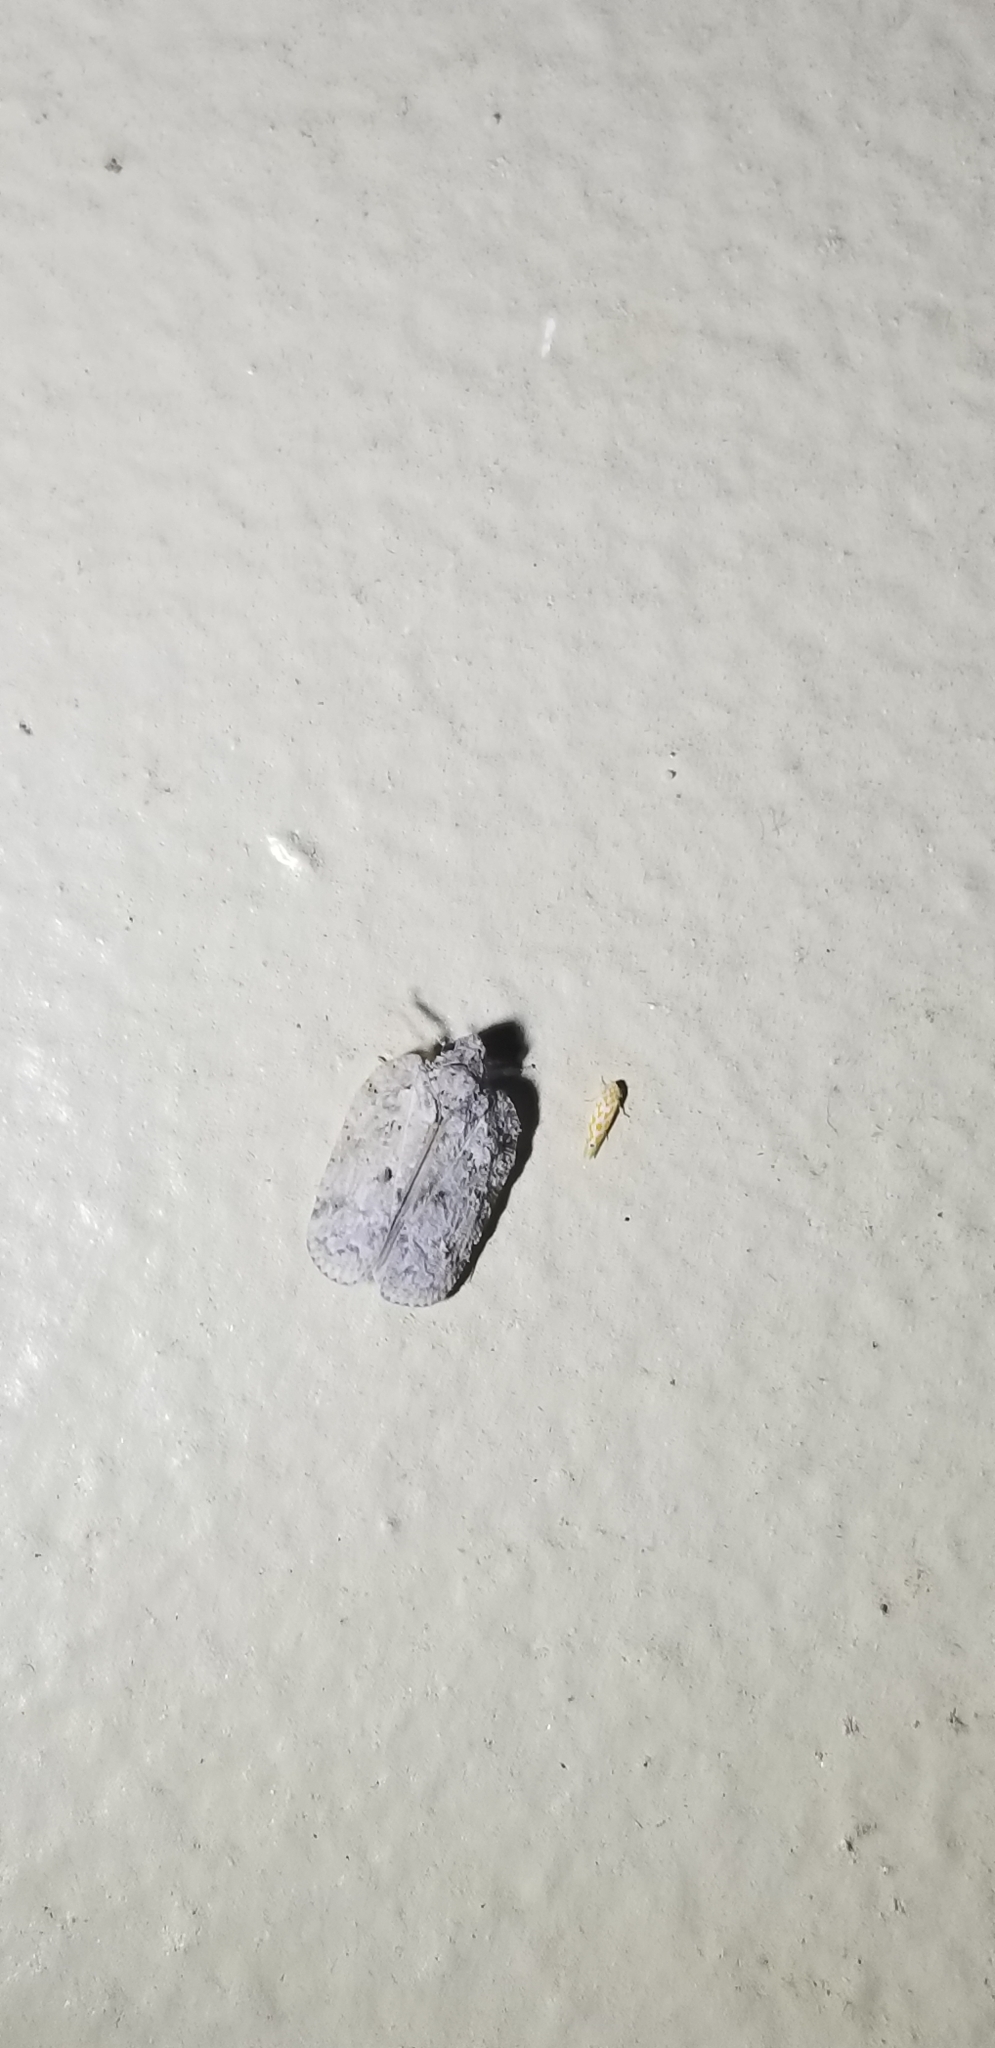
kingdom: Animalia
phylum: Arthropoda
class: Insecta
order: Hemiptera
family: Flatidae
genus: Flatoidinus
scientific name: Flatoidinus punctatus
